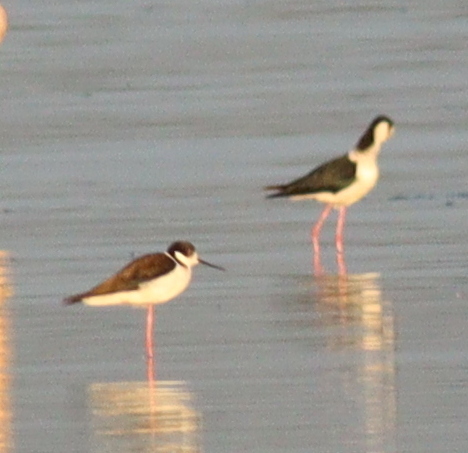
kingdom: Animalia
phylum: Chordata
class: Aves
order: Charadriiformes
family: Recurvirostridae
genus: Himantopus
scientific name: Himantopus mexicanus
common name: Black-necked stilt
